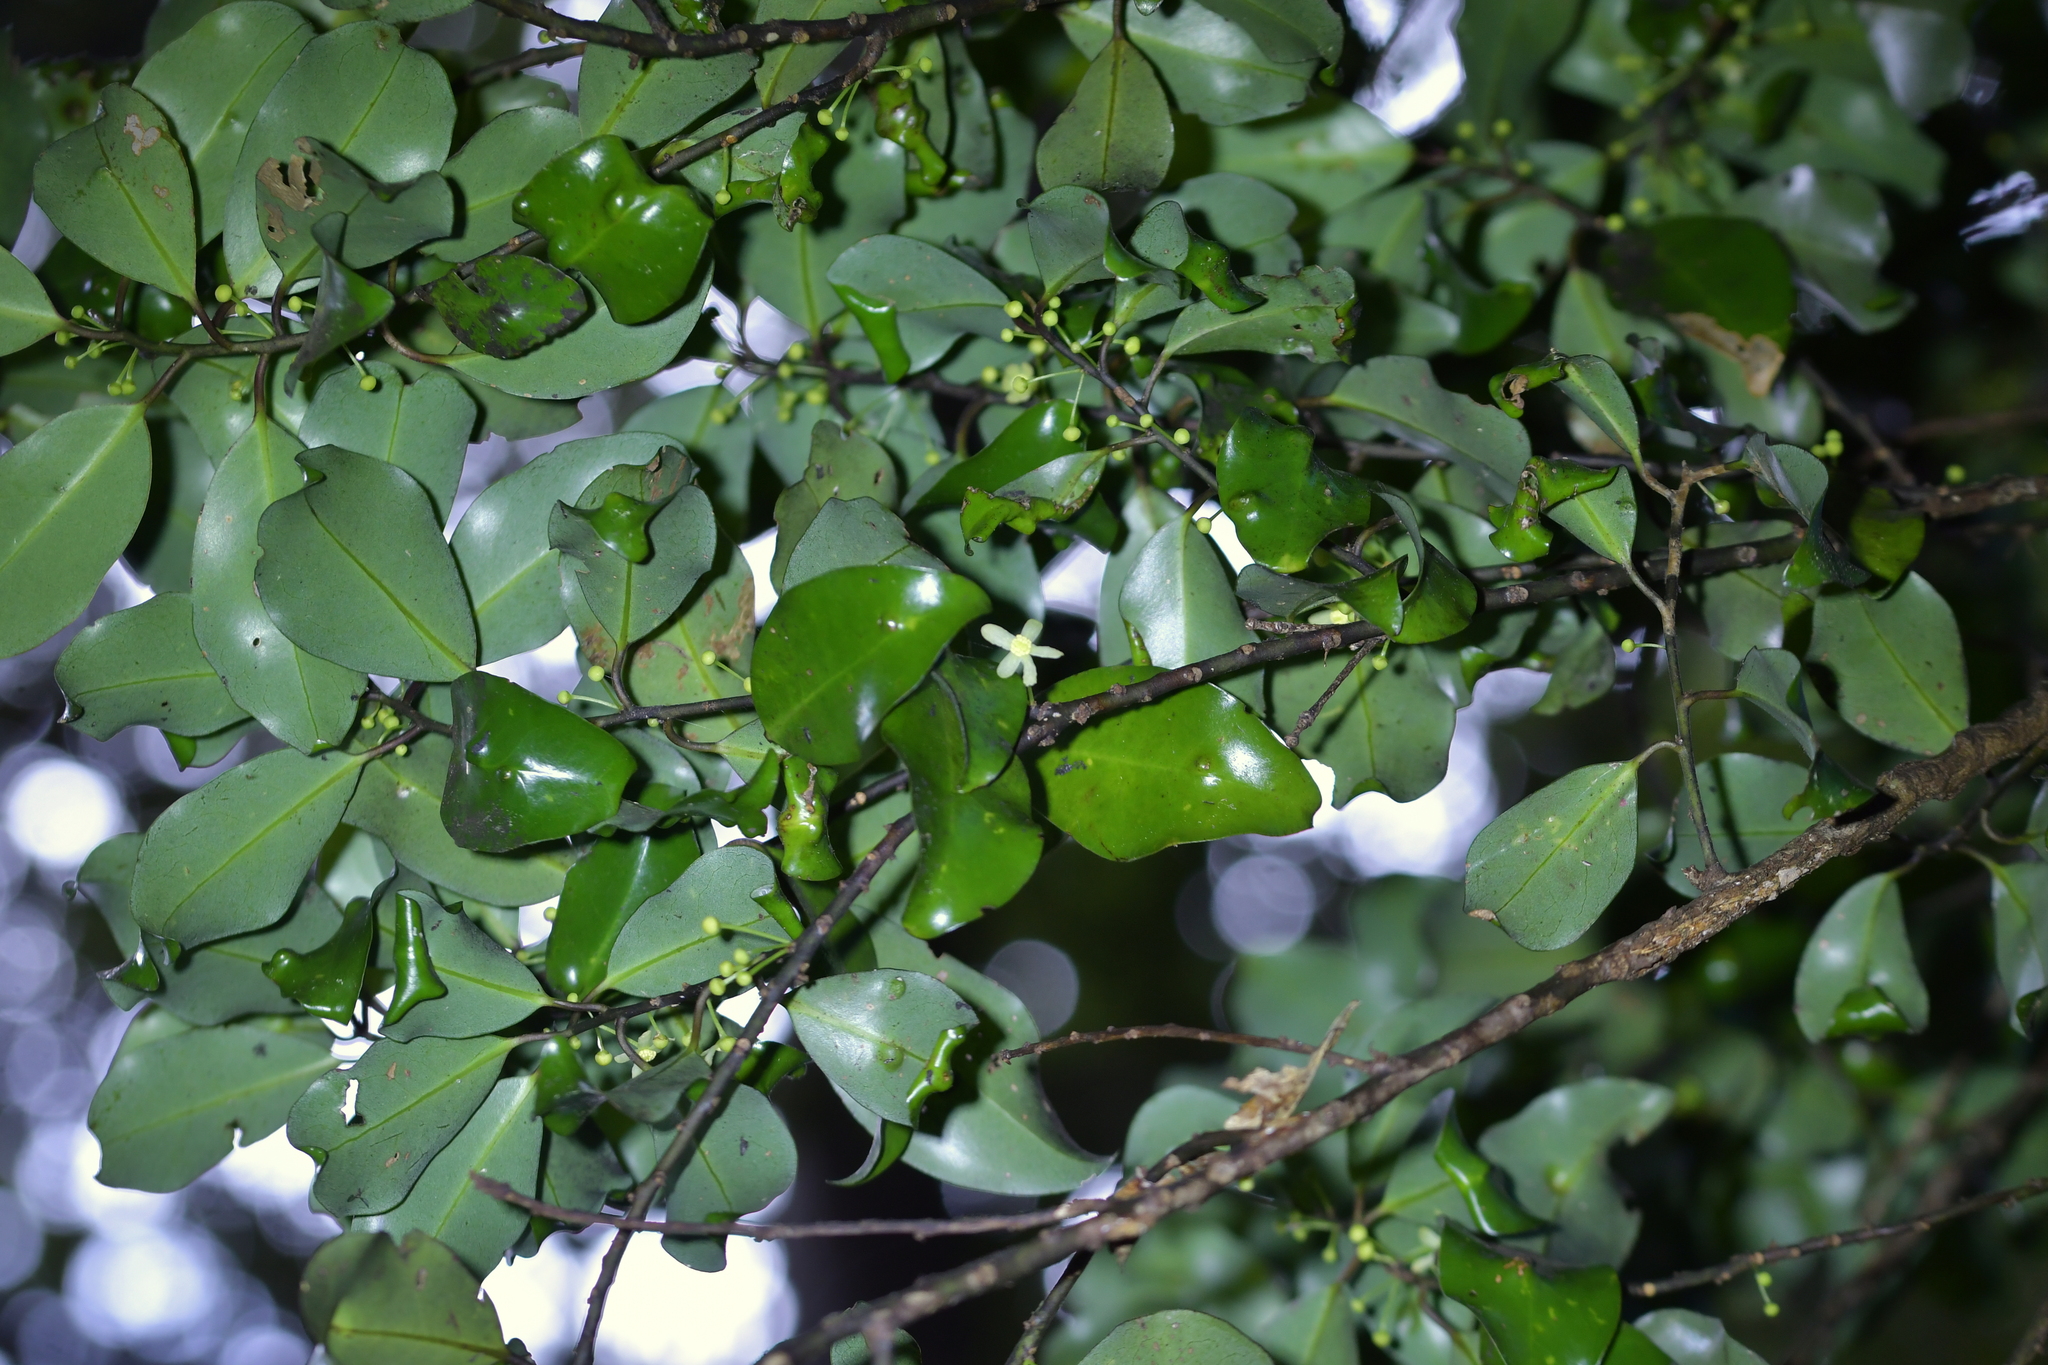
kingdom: Plantae
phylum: Tracheophyta
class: Magnoliopsida
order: Canellales
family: Winteraceae
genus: Pseudowintera
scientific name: Pseudowintera axillaris
